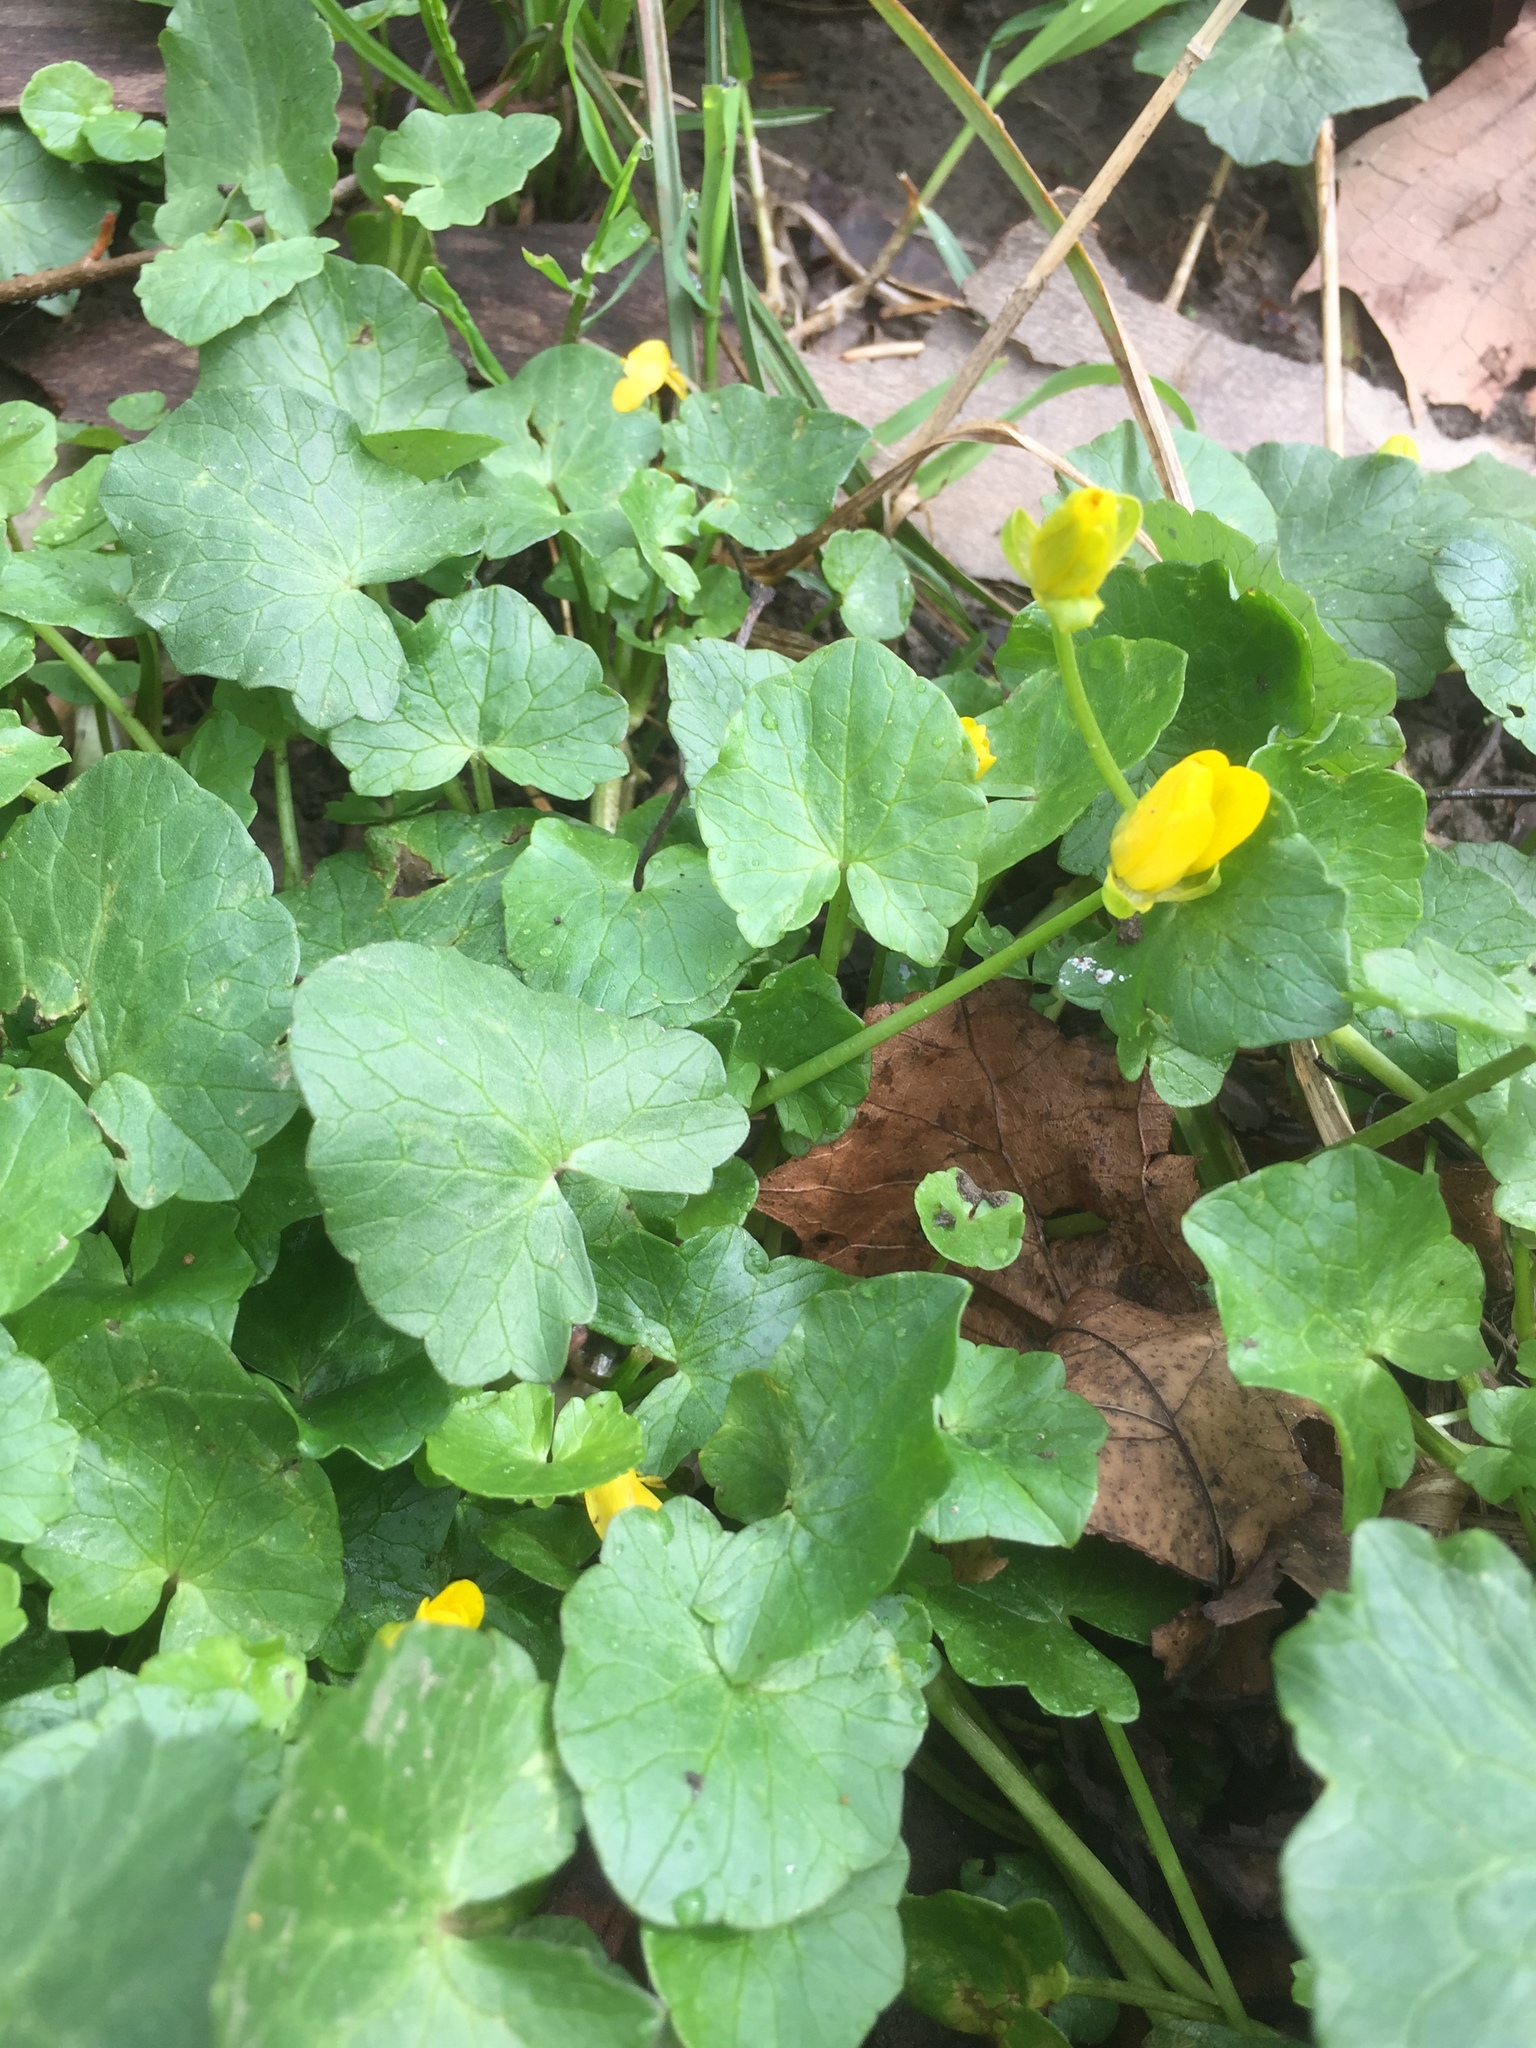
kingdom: Plantae
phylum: Tracheophyta
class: Magnoliopsida
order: Ranunculales
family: Ranunculaceae
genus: Ficaria
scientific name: Ficaria verna
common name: Lesser celandine
